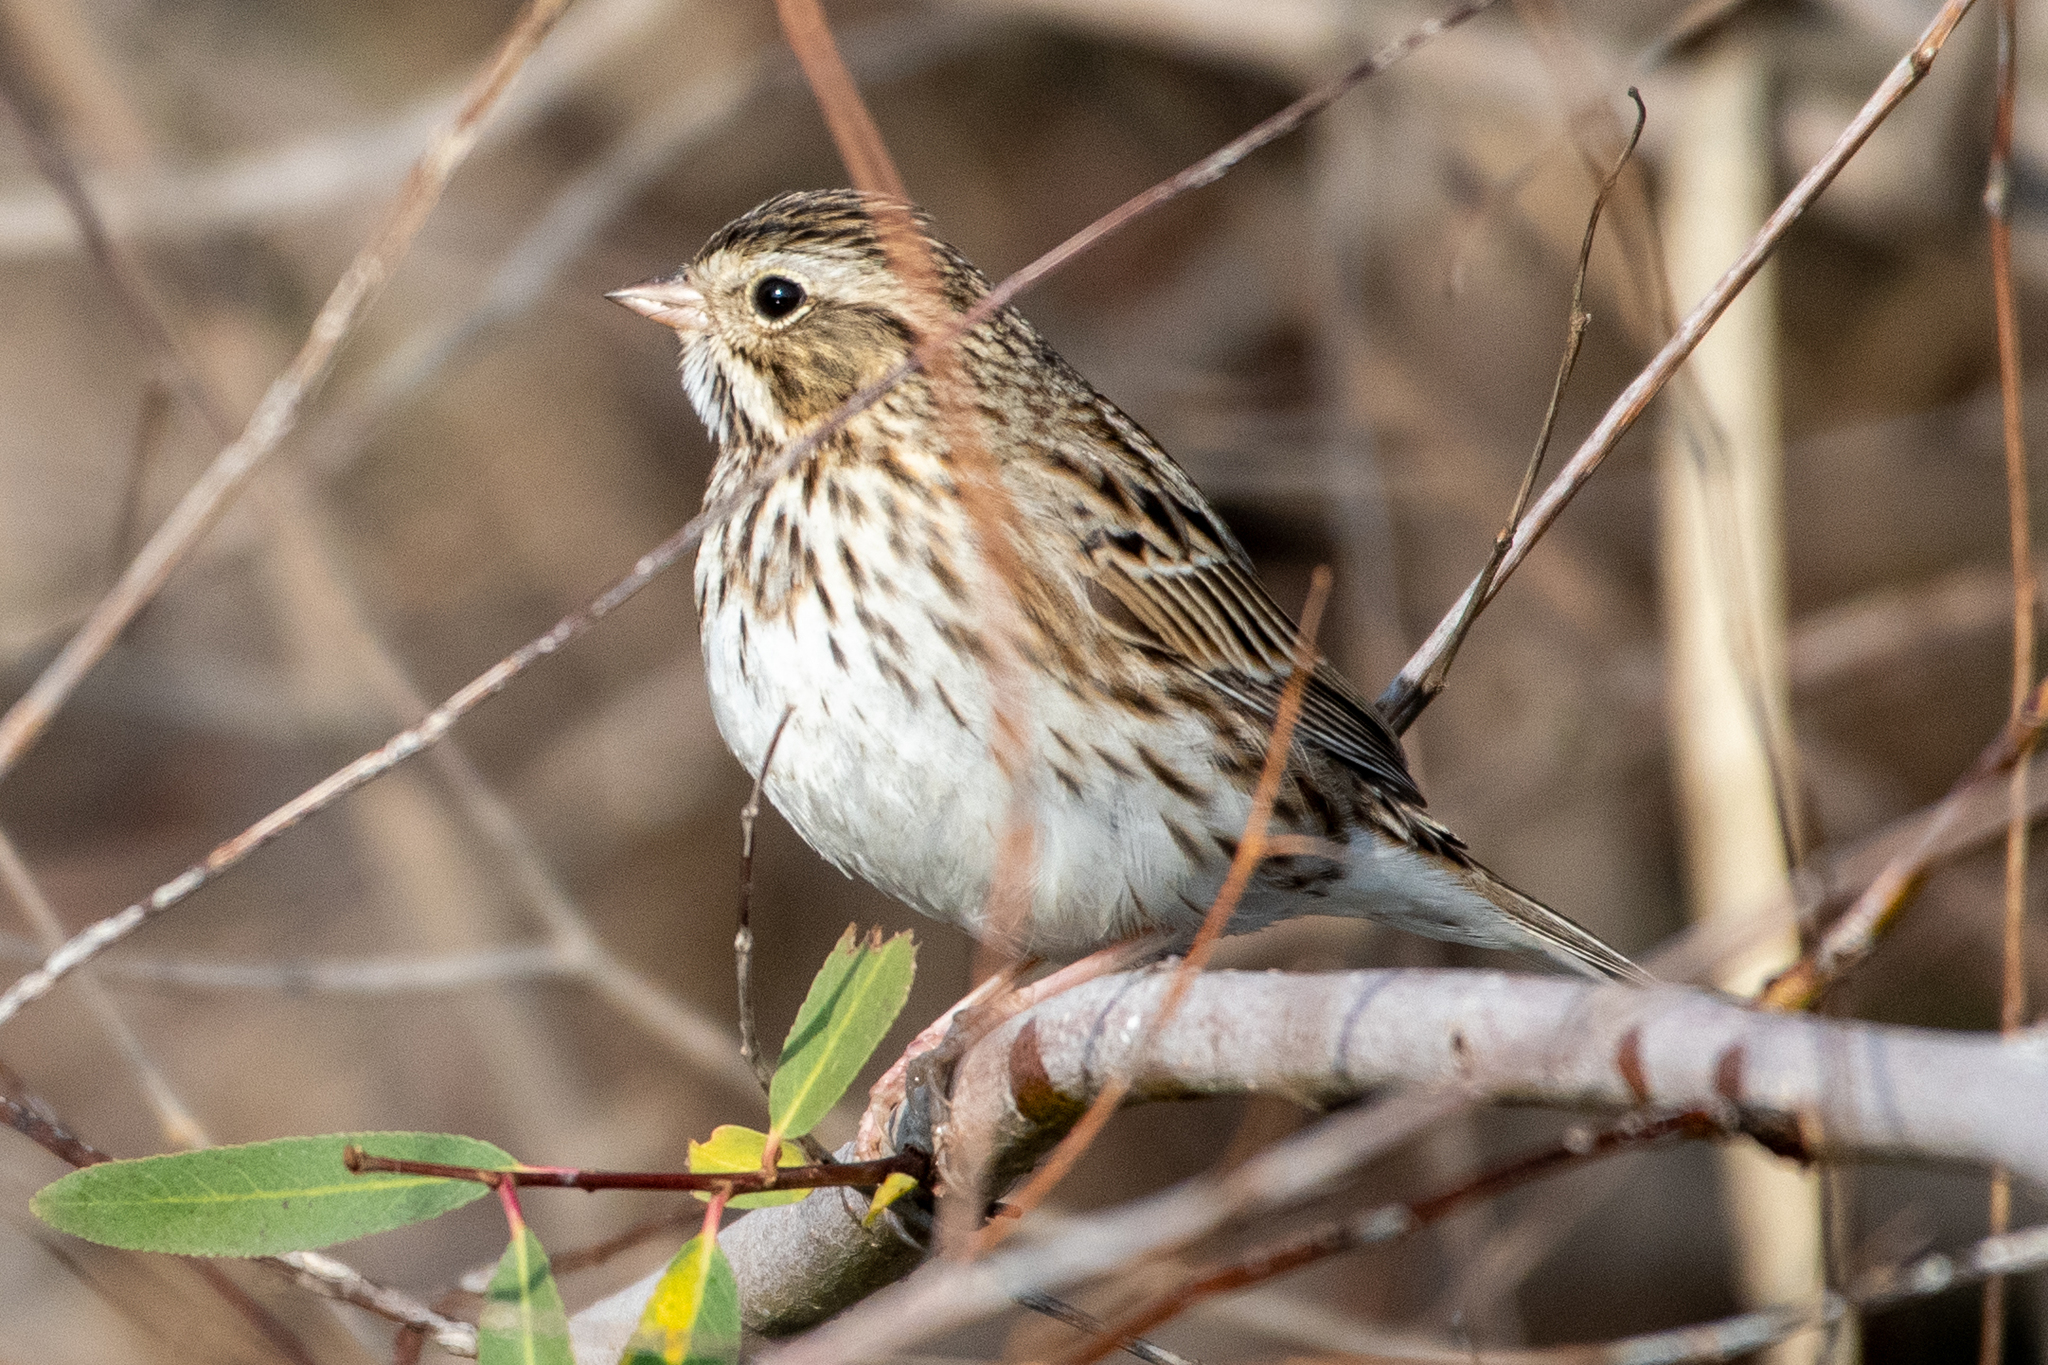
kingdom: Animalia
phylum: Chordata
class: Aves
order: Passeriformes
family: Passerellidae
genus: Passerculus
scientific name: Passerculus sandwichensis
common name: Savannah sparrow
